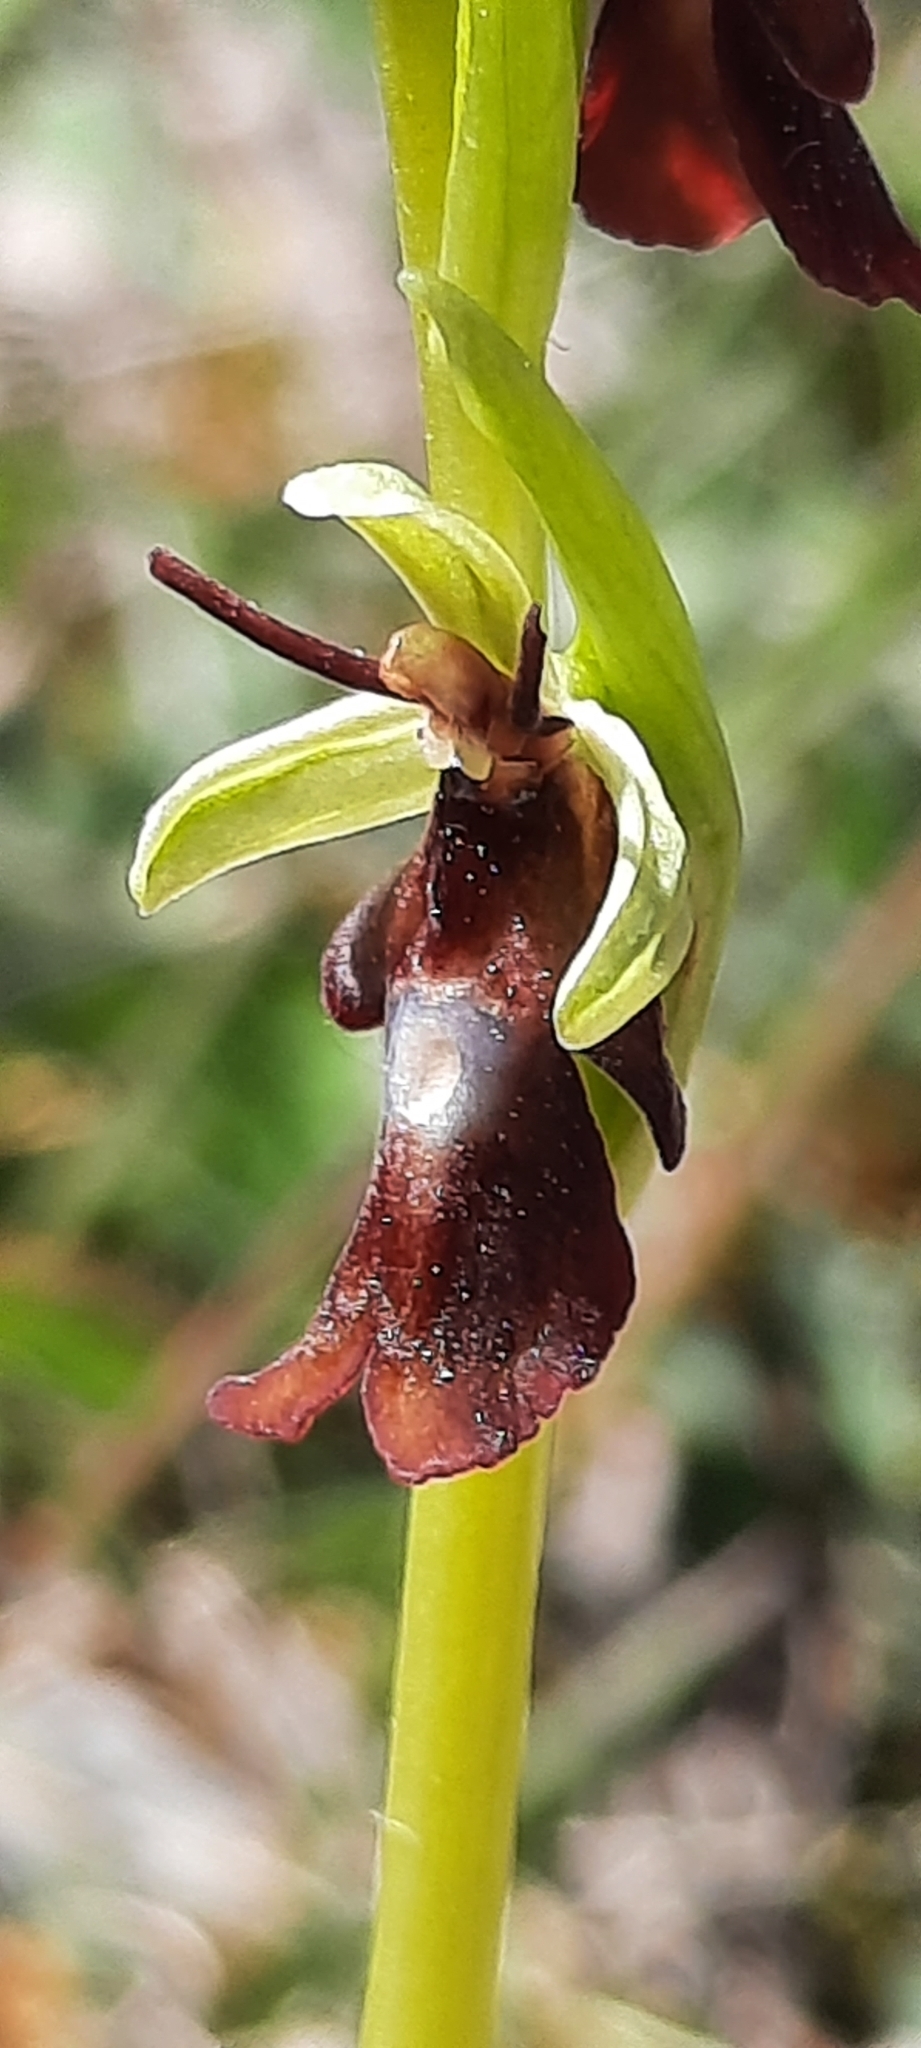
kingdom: Plantae
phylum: Tracheophyta
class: Liliopsida
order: Asparagales
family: Orchidaceae
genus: Ophrys
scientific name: Ophrys insectifera
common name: Fly orchid
